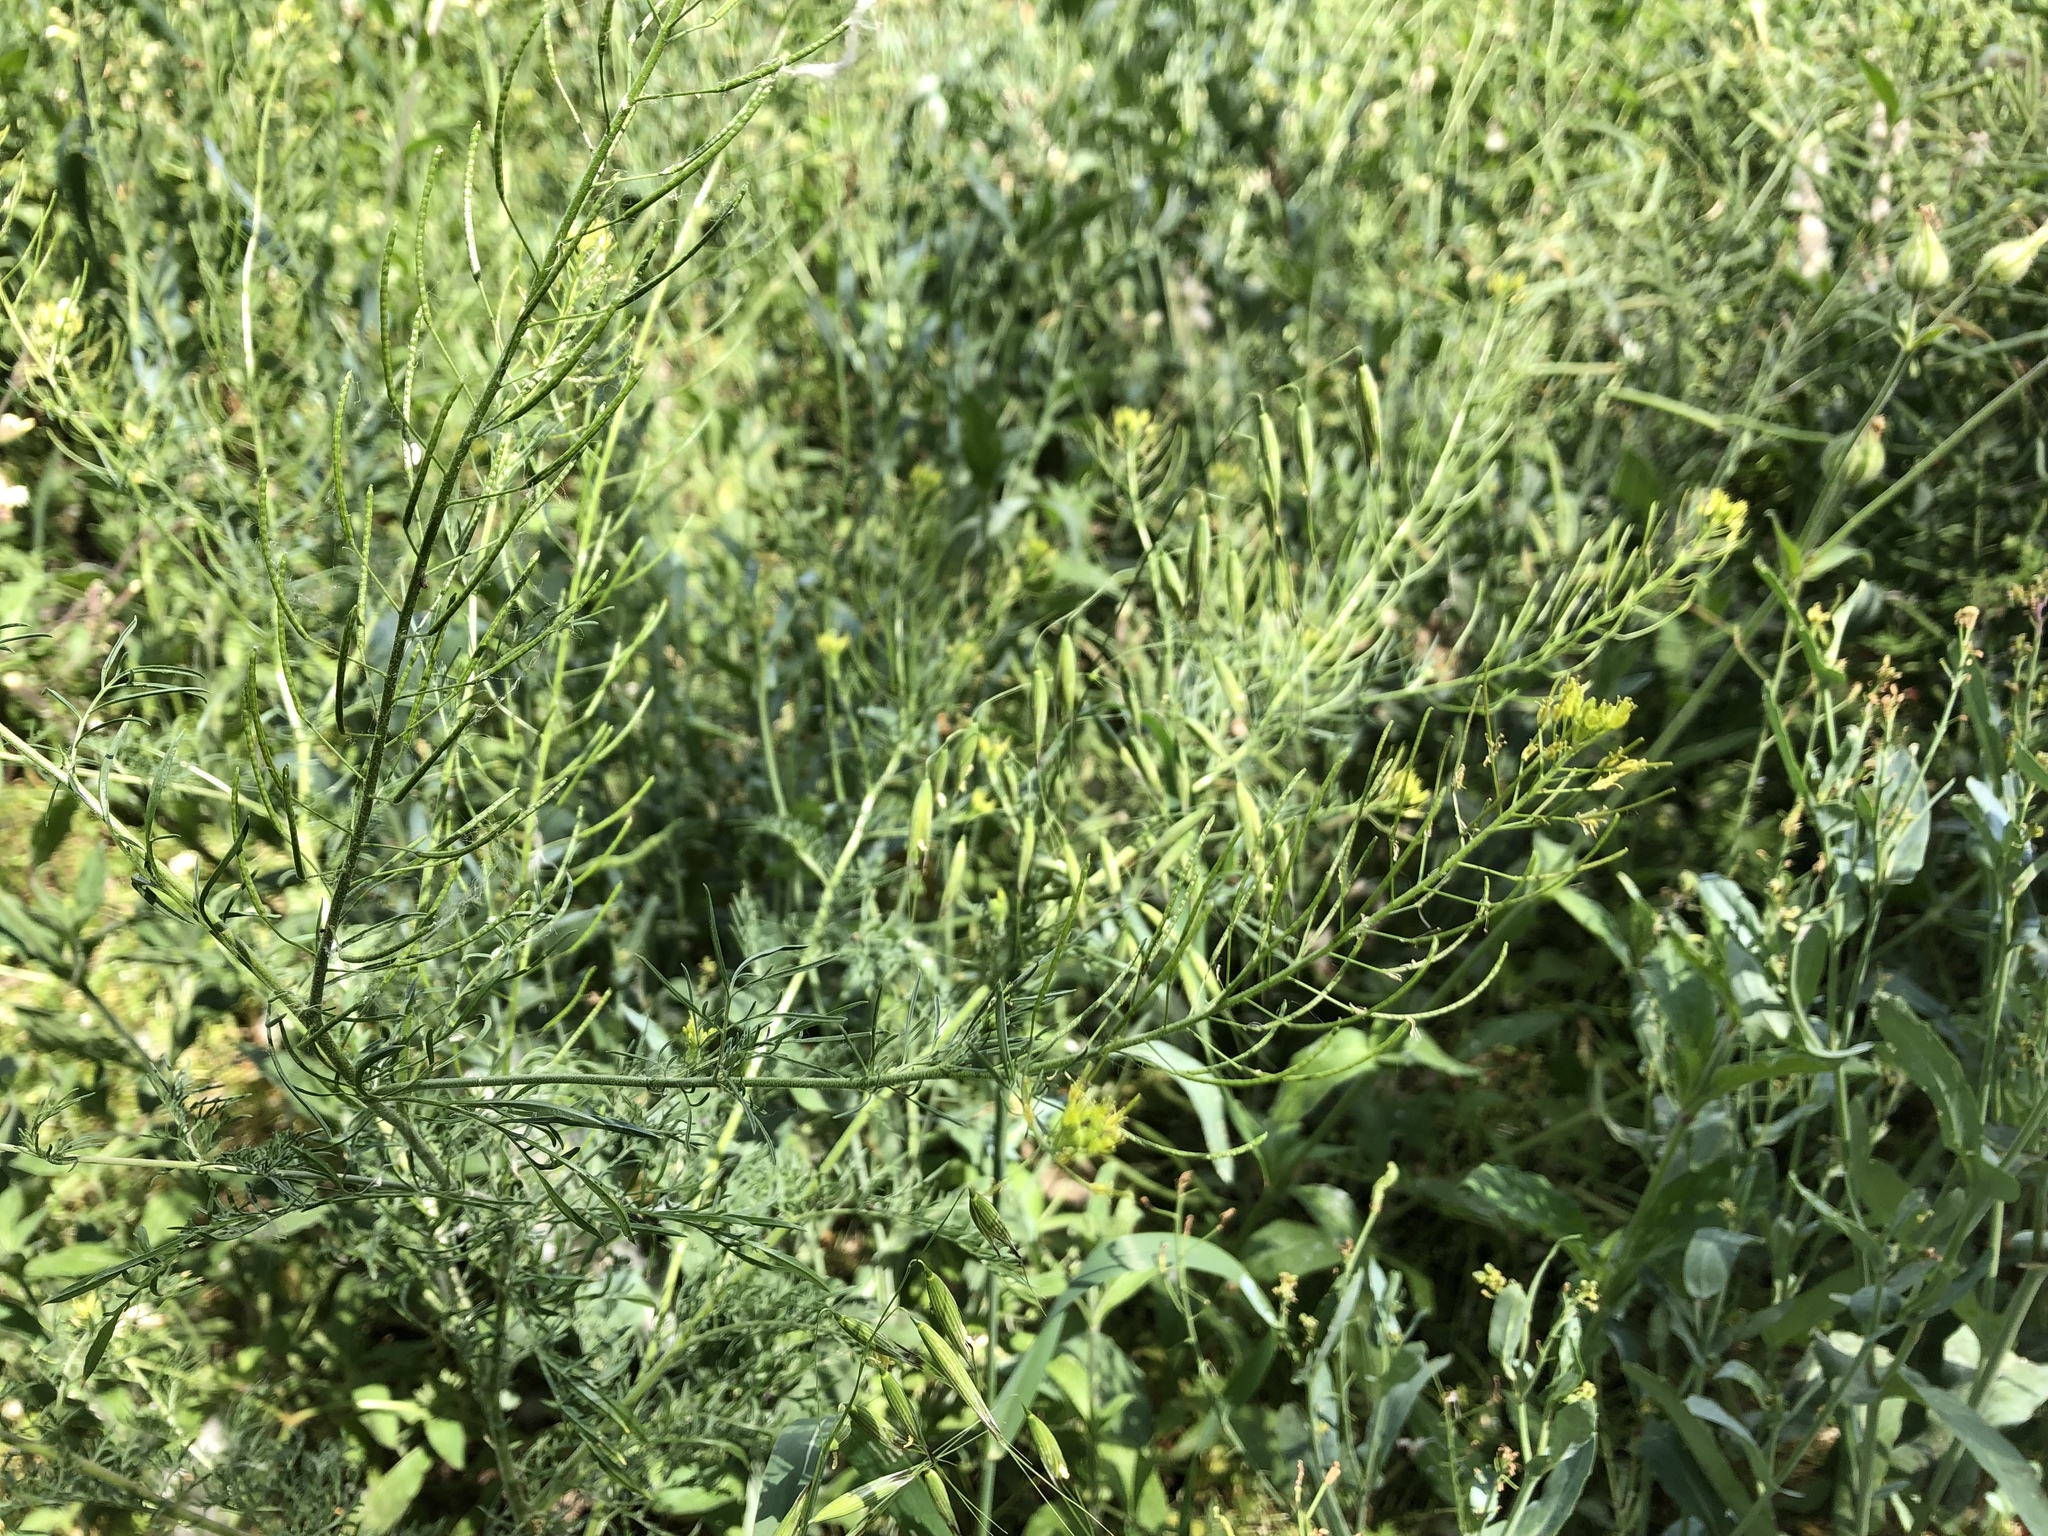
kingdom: Plantae
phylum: Tracheophyta
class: Magnoliopsida
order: Brassicales
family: Brassicaceae
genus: Descurainia
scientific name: Descurainia sophia
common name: Flixweed
